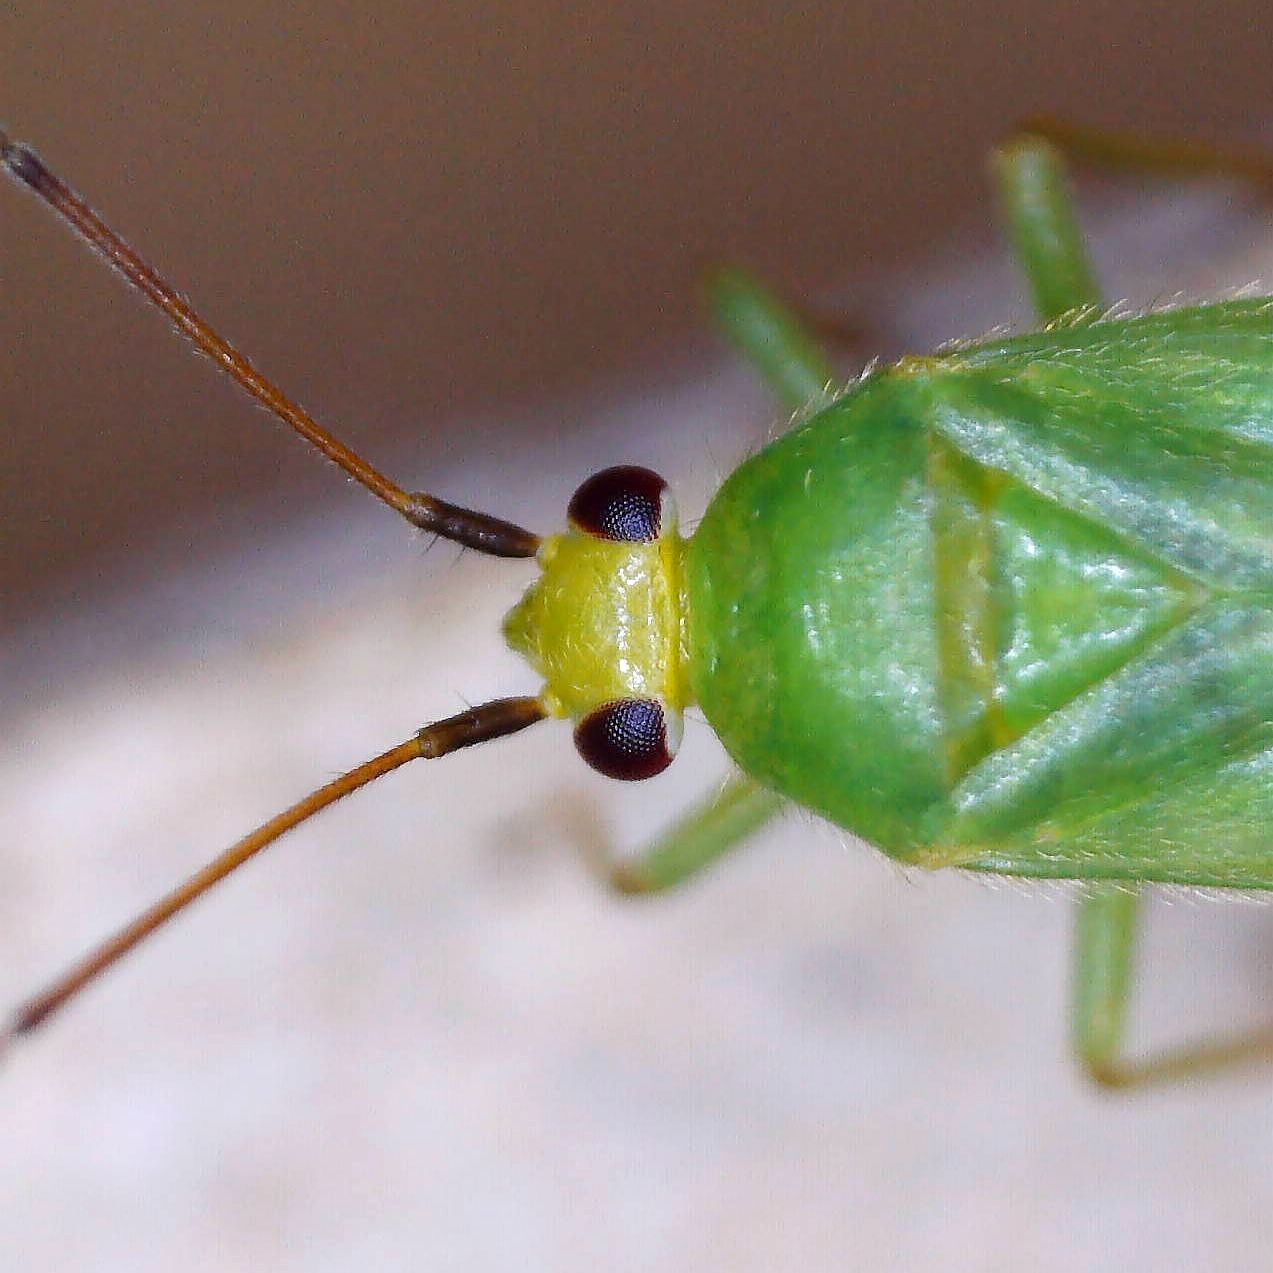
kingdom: Animalia
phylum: Arthropoda
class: Insecta
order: Hemiptera
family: Miridae
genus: Orthotylus
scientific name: Orthotylus flavinervis
